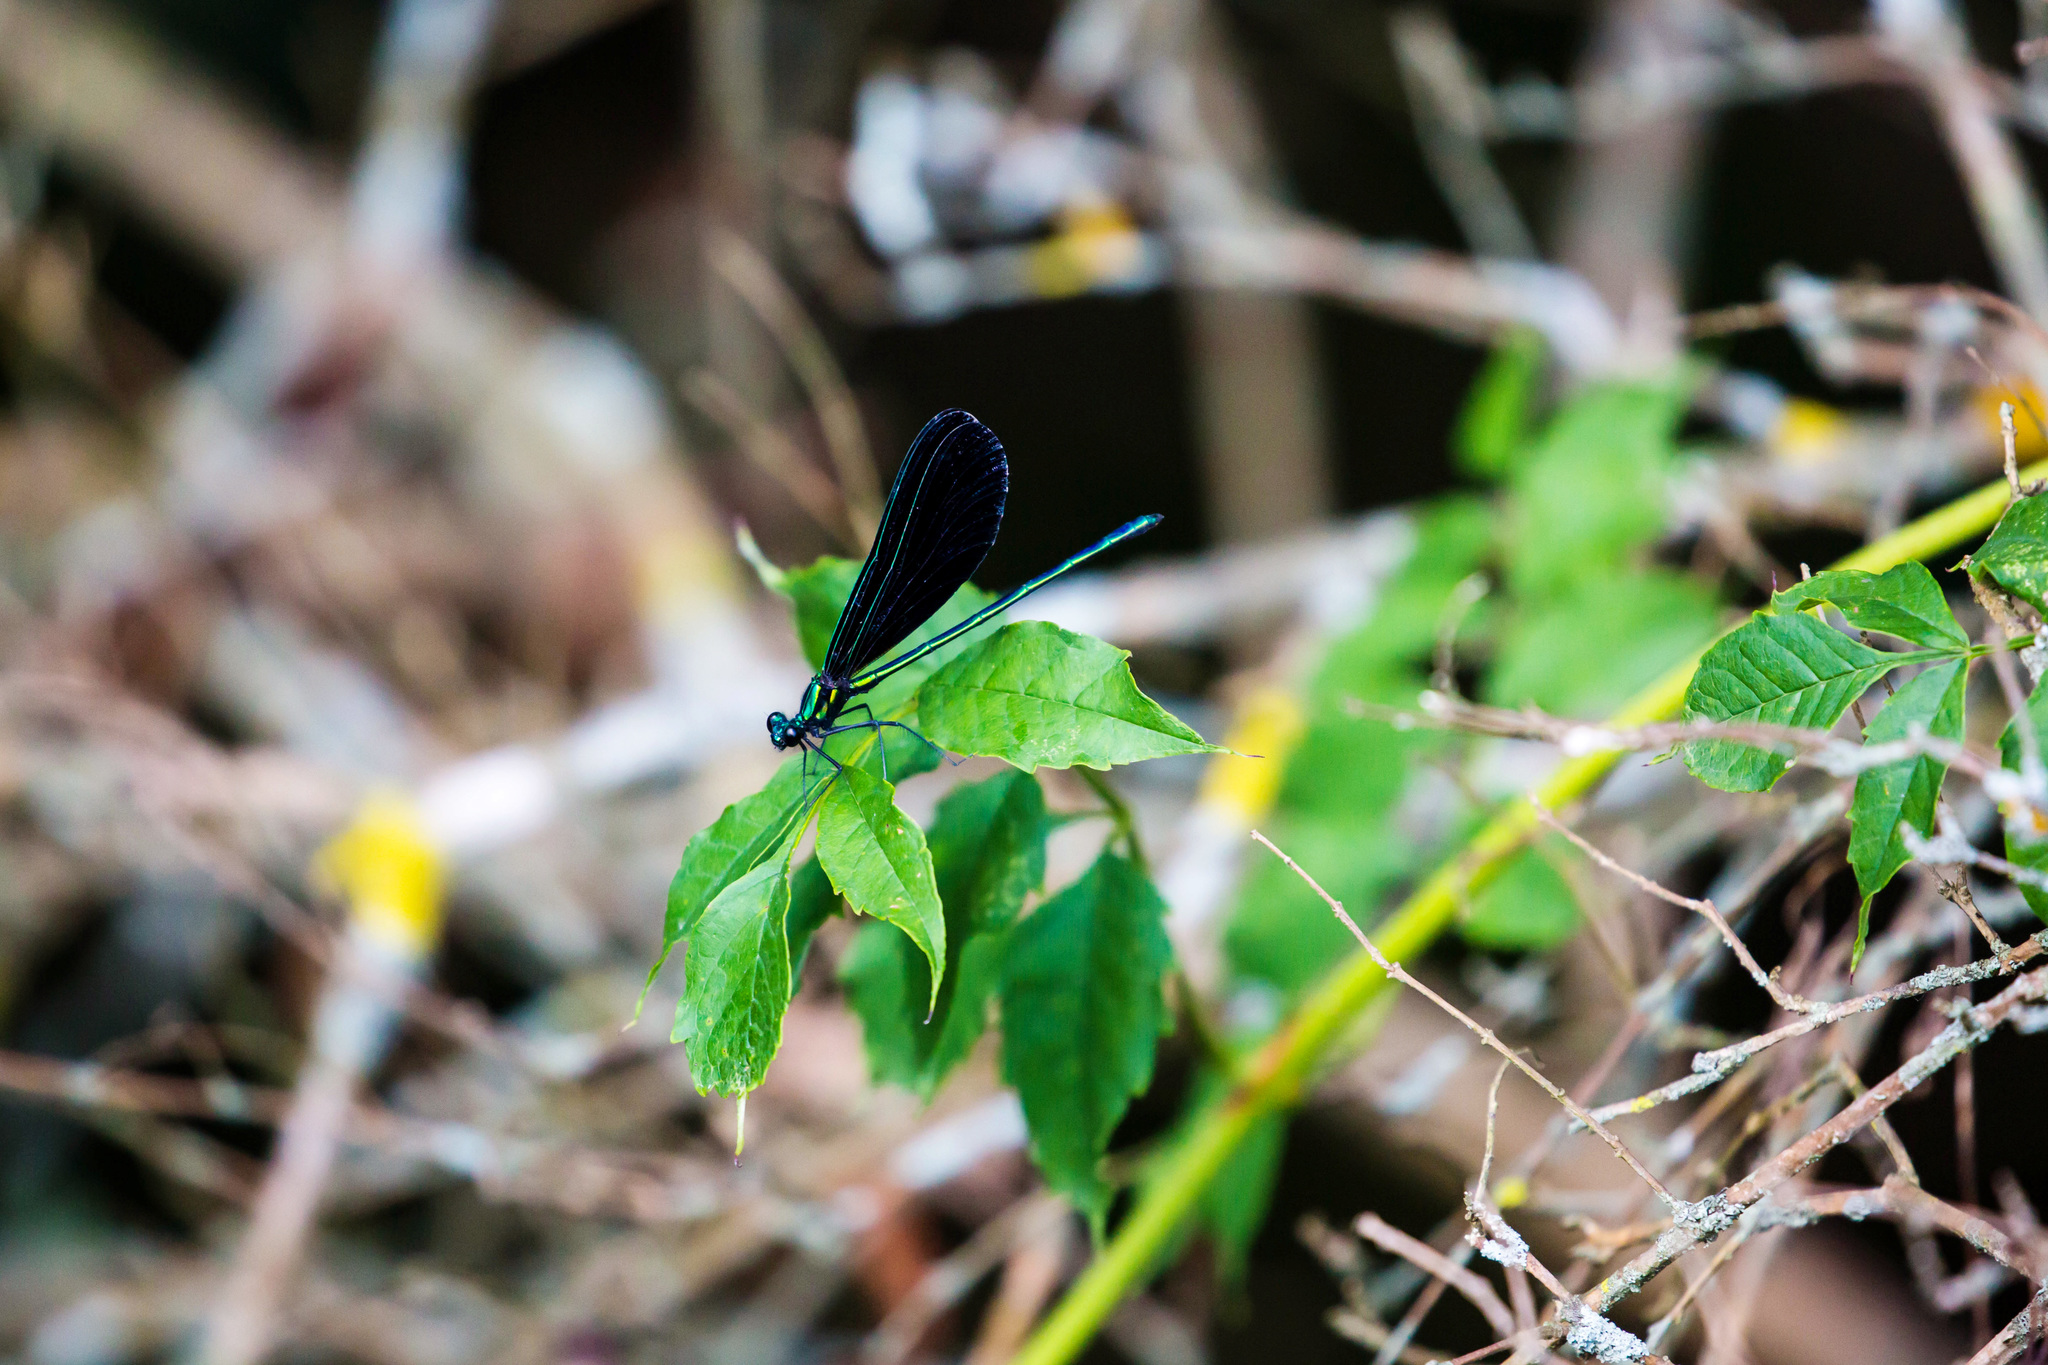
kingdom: Animalia
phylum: Arthropoda
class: Insecta
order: Odonata
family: Calopterygidae
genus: Calopteryx
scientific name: Calopteryx maculata
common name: Ebony jewelwing
